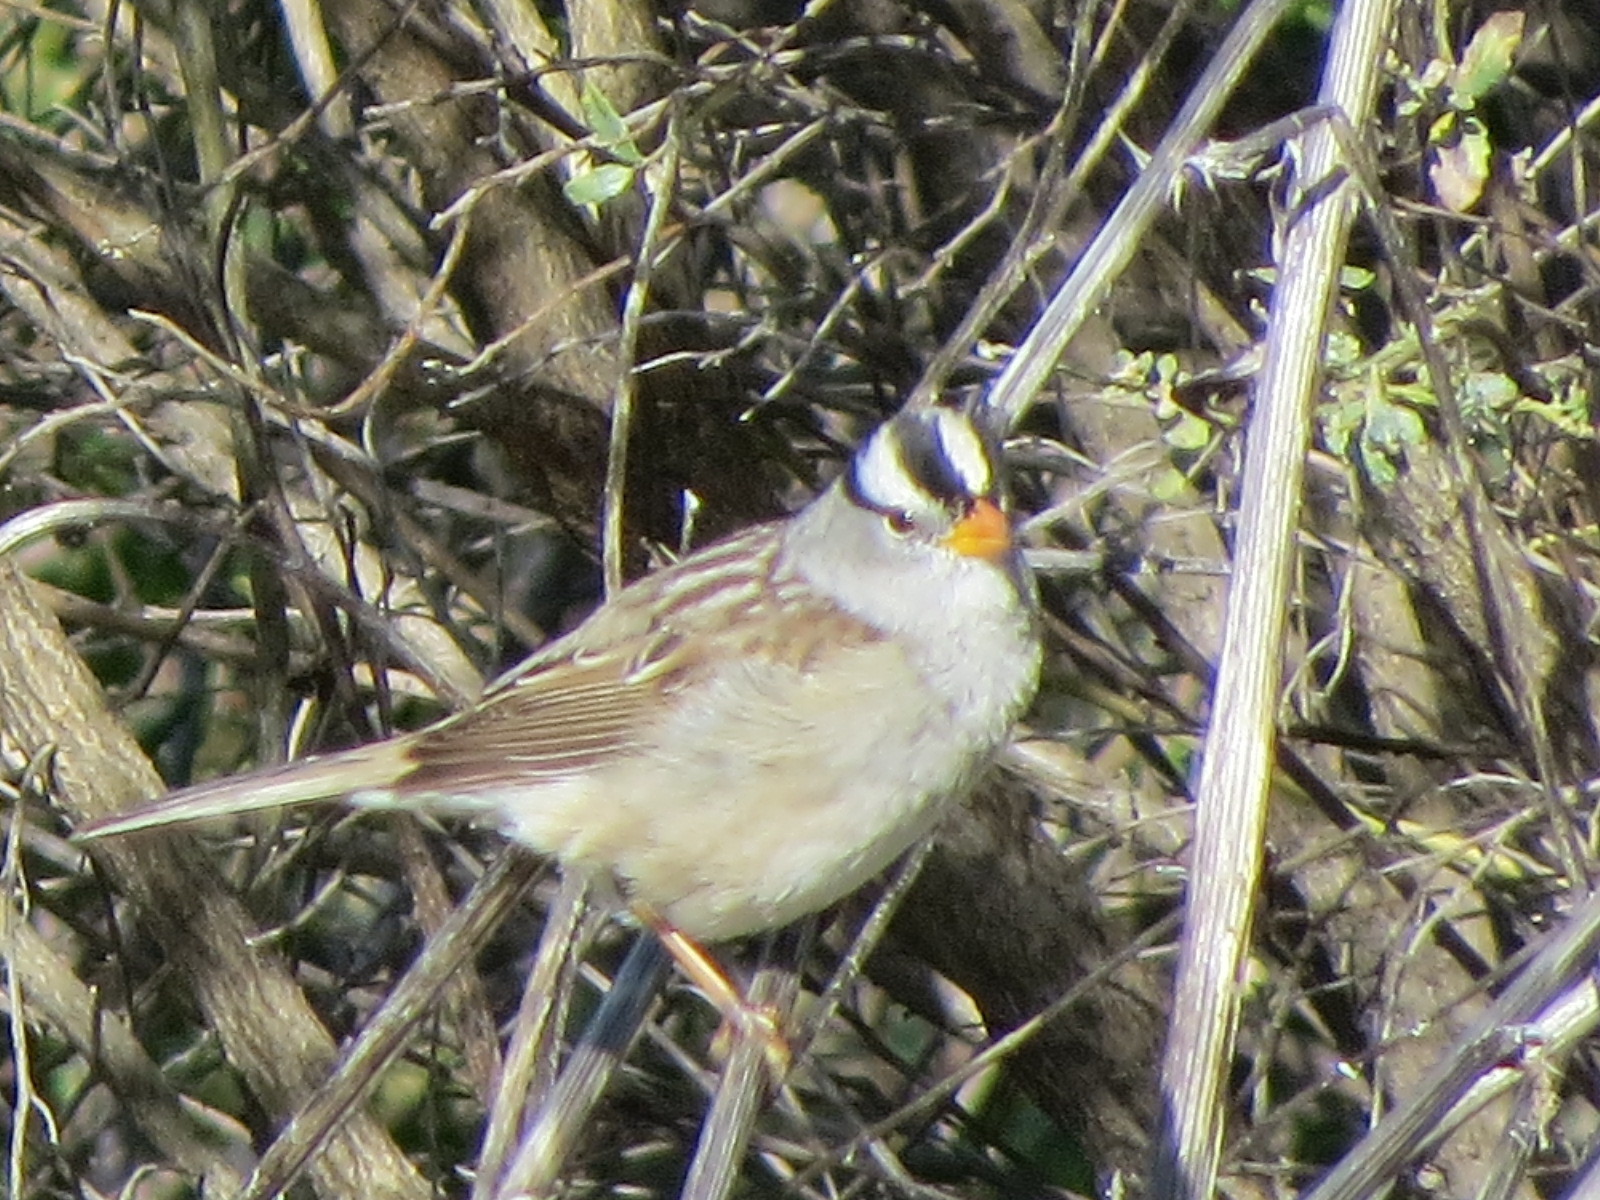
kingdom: Animalia
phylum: Chordata
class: Aves
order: Passeriformes
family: Passerellidae
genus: Zonotrichia
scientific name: Zonotrichia leucophrys
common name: White-crowned sparrow
